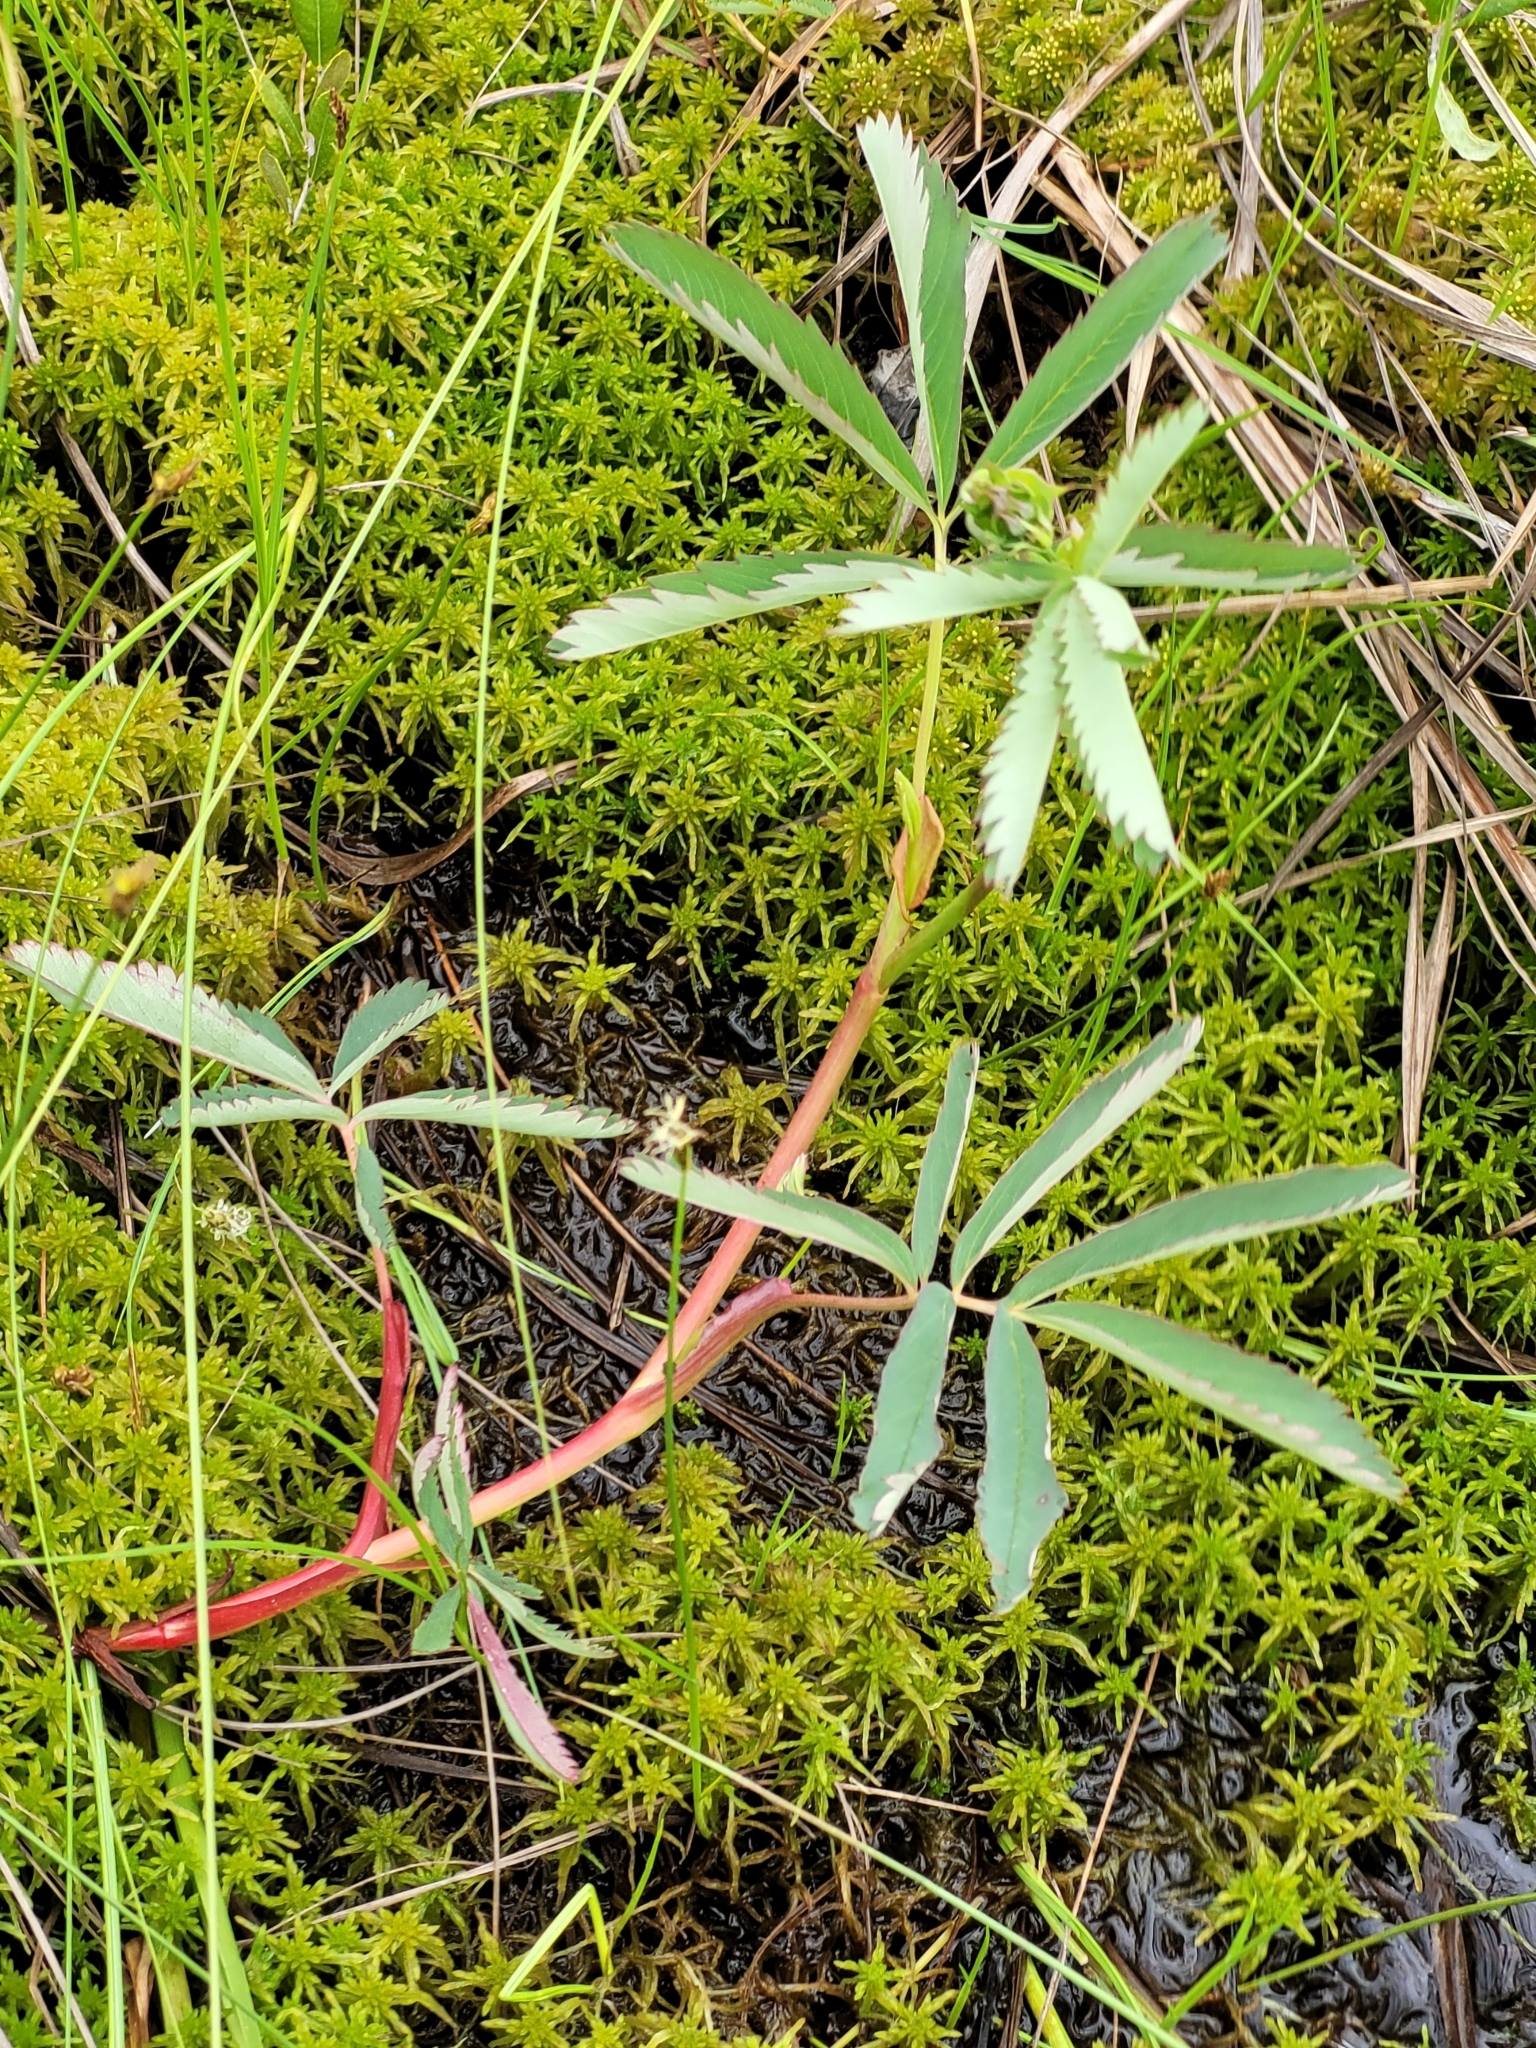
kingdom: Plantae
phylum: Tracheophyta
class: Magnoliopsida
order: Rosales
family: Rosaceae
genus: Comarum
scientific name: Comarum palustre
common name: Marsh cinquefoil
